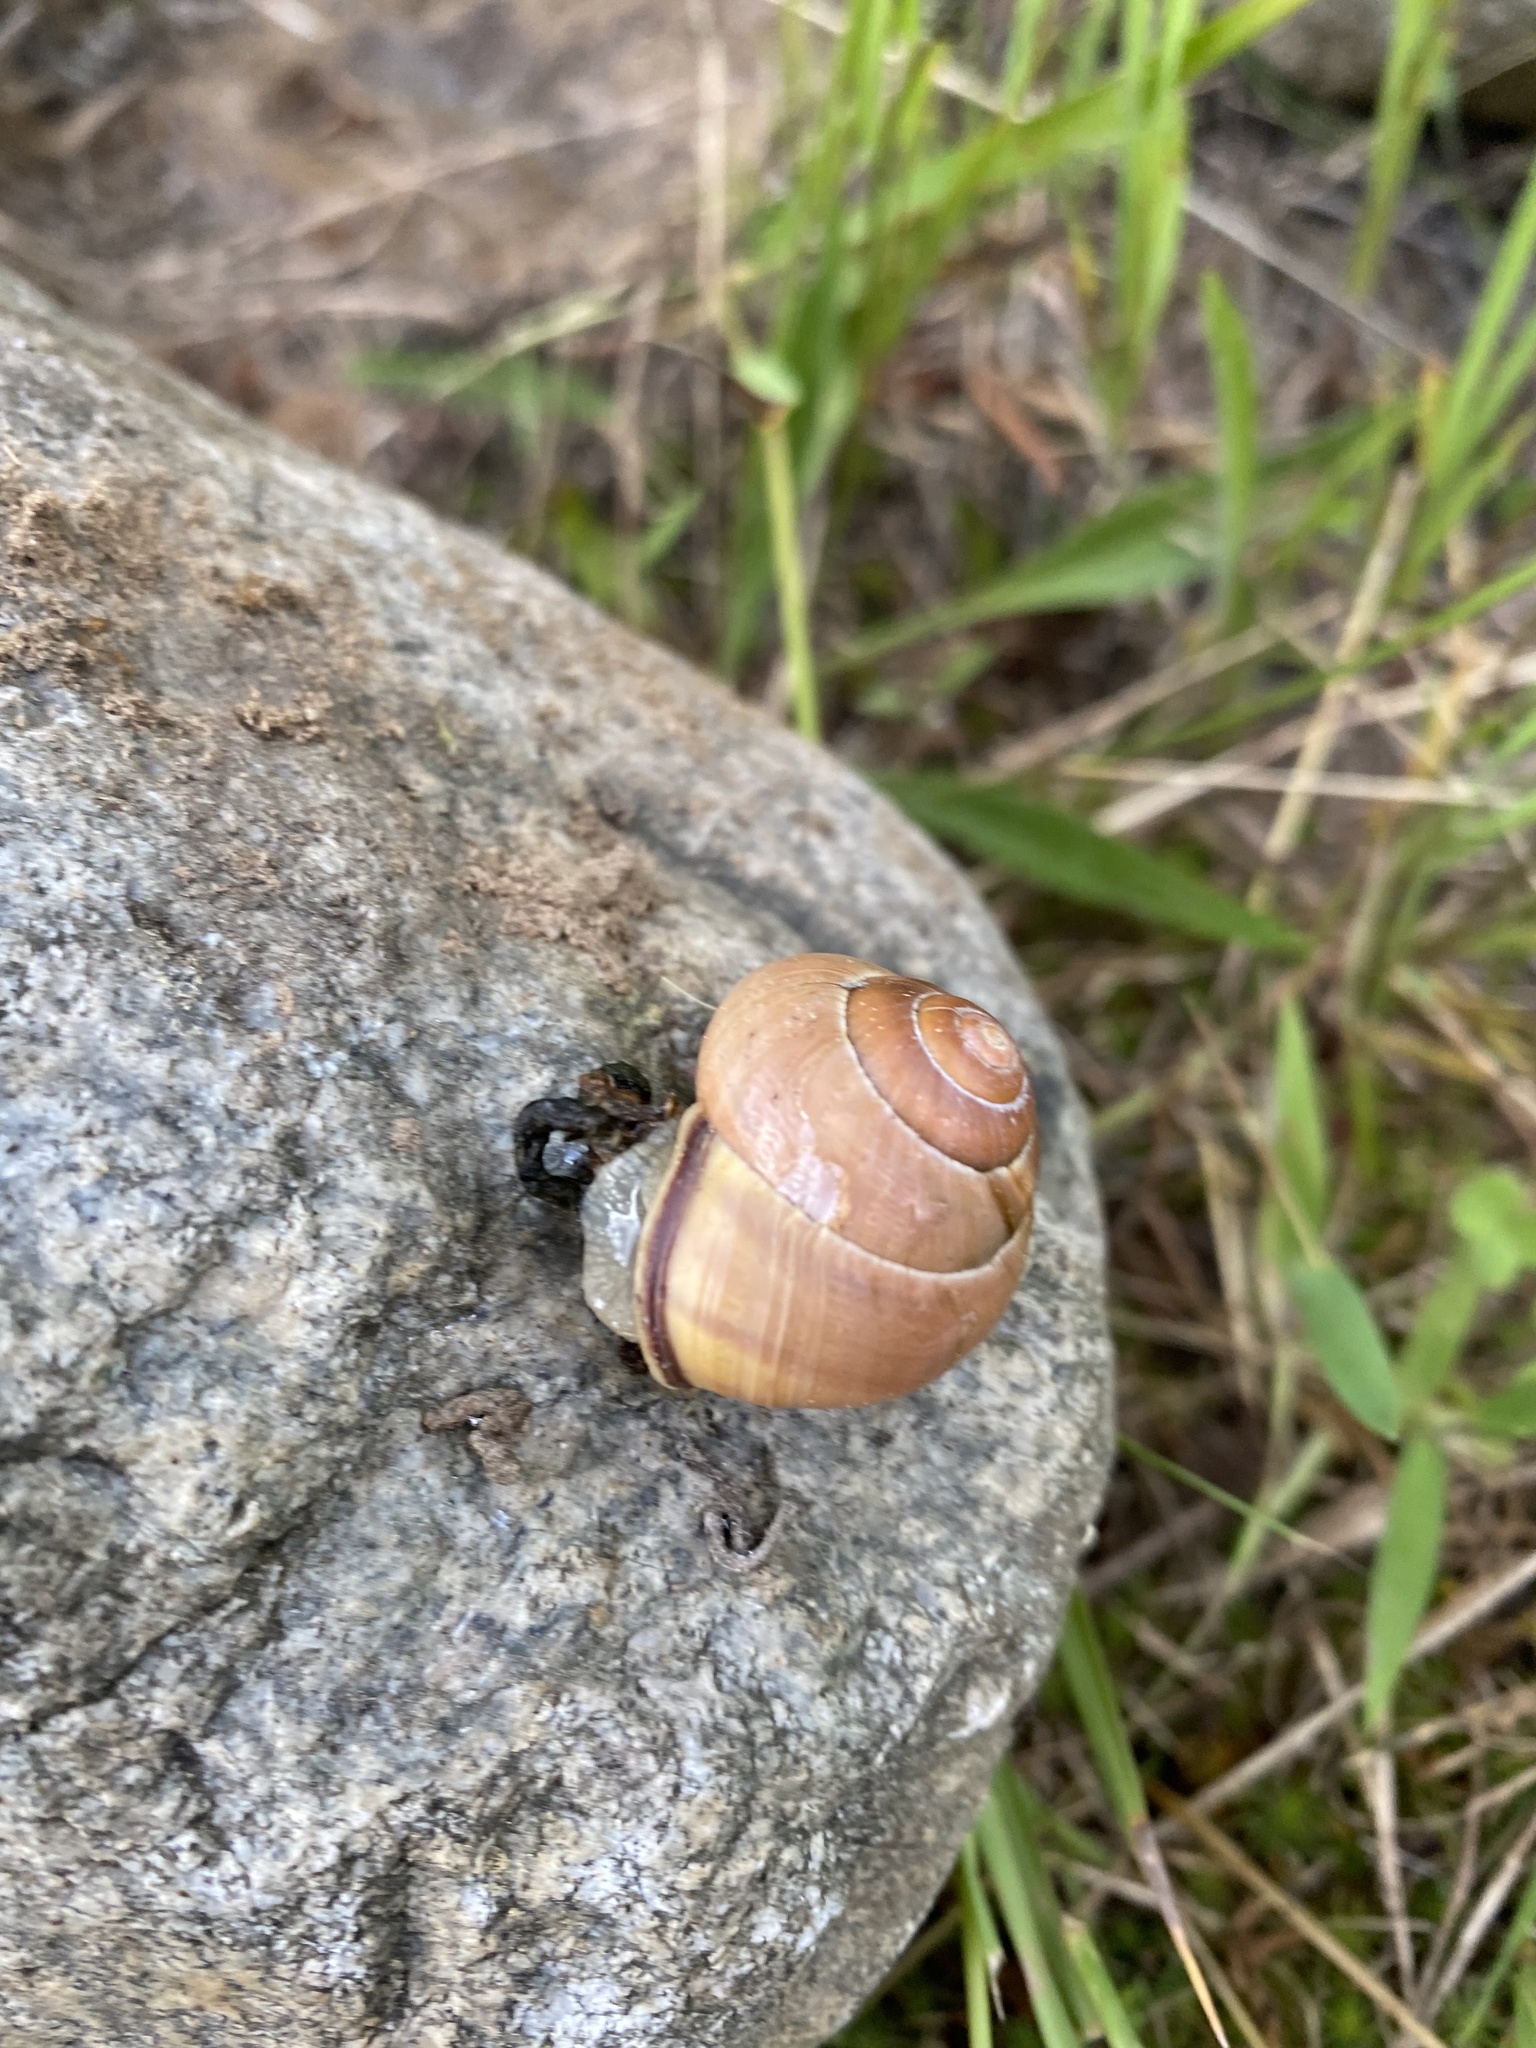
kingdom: Animalia
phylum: Mollusca
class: Gastropoda
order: Stylommatophora
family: Helicidae
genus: Cepaea
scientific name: Cepaea nemoralis
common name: Grovesnail
